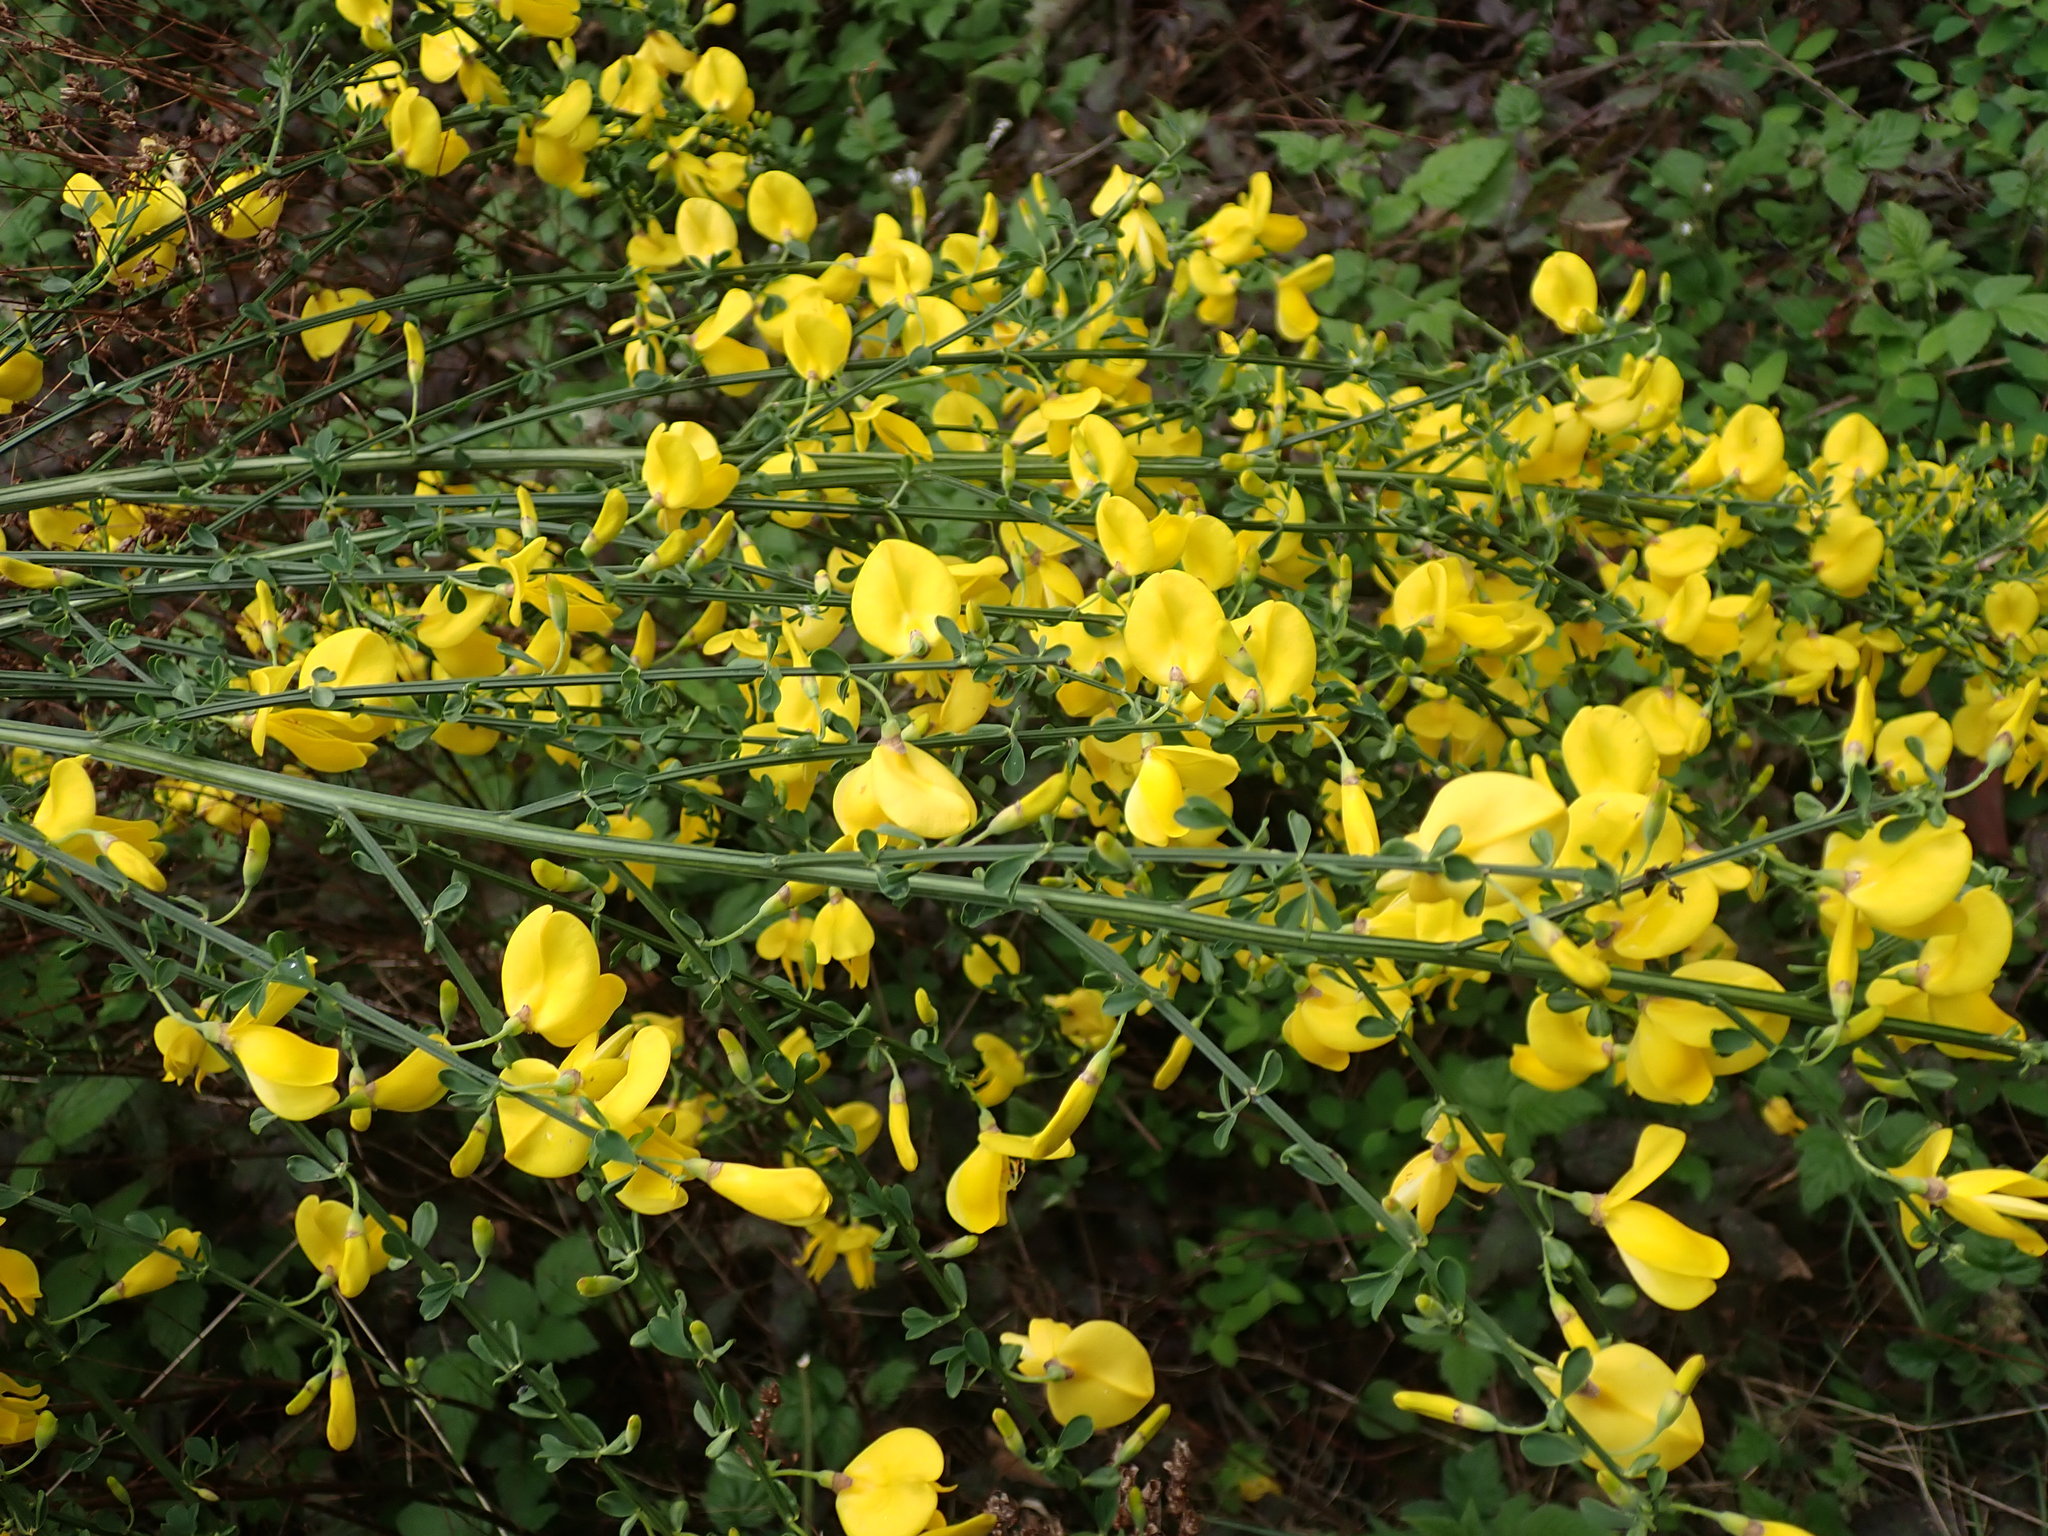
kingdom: Plantae
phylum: Tracheophyta
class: Magnoliopsida
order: Fabales
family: Fabaceae
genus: Cytisus
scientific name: Cytisus scoparius
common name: Scotch broom
